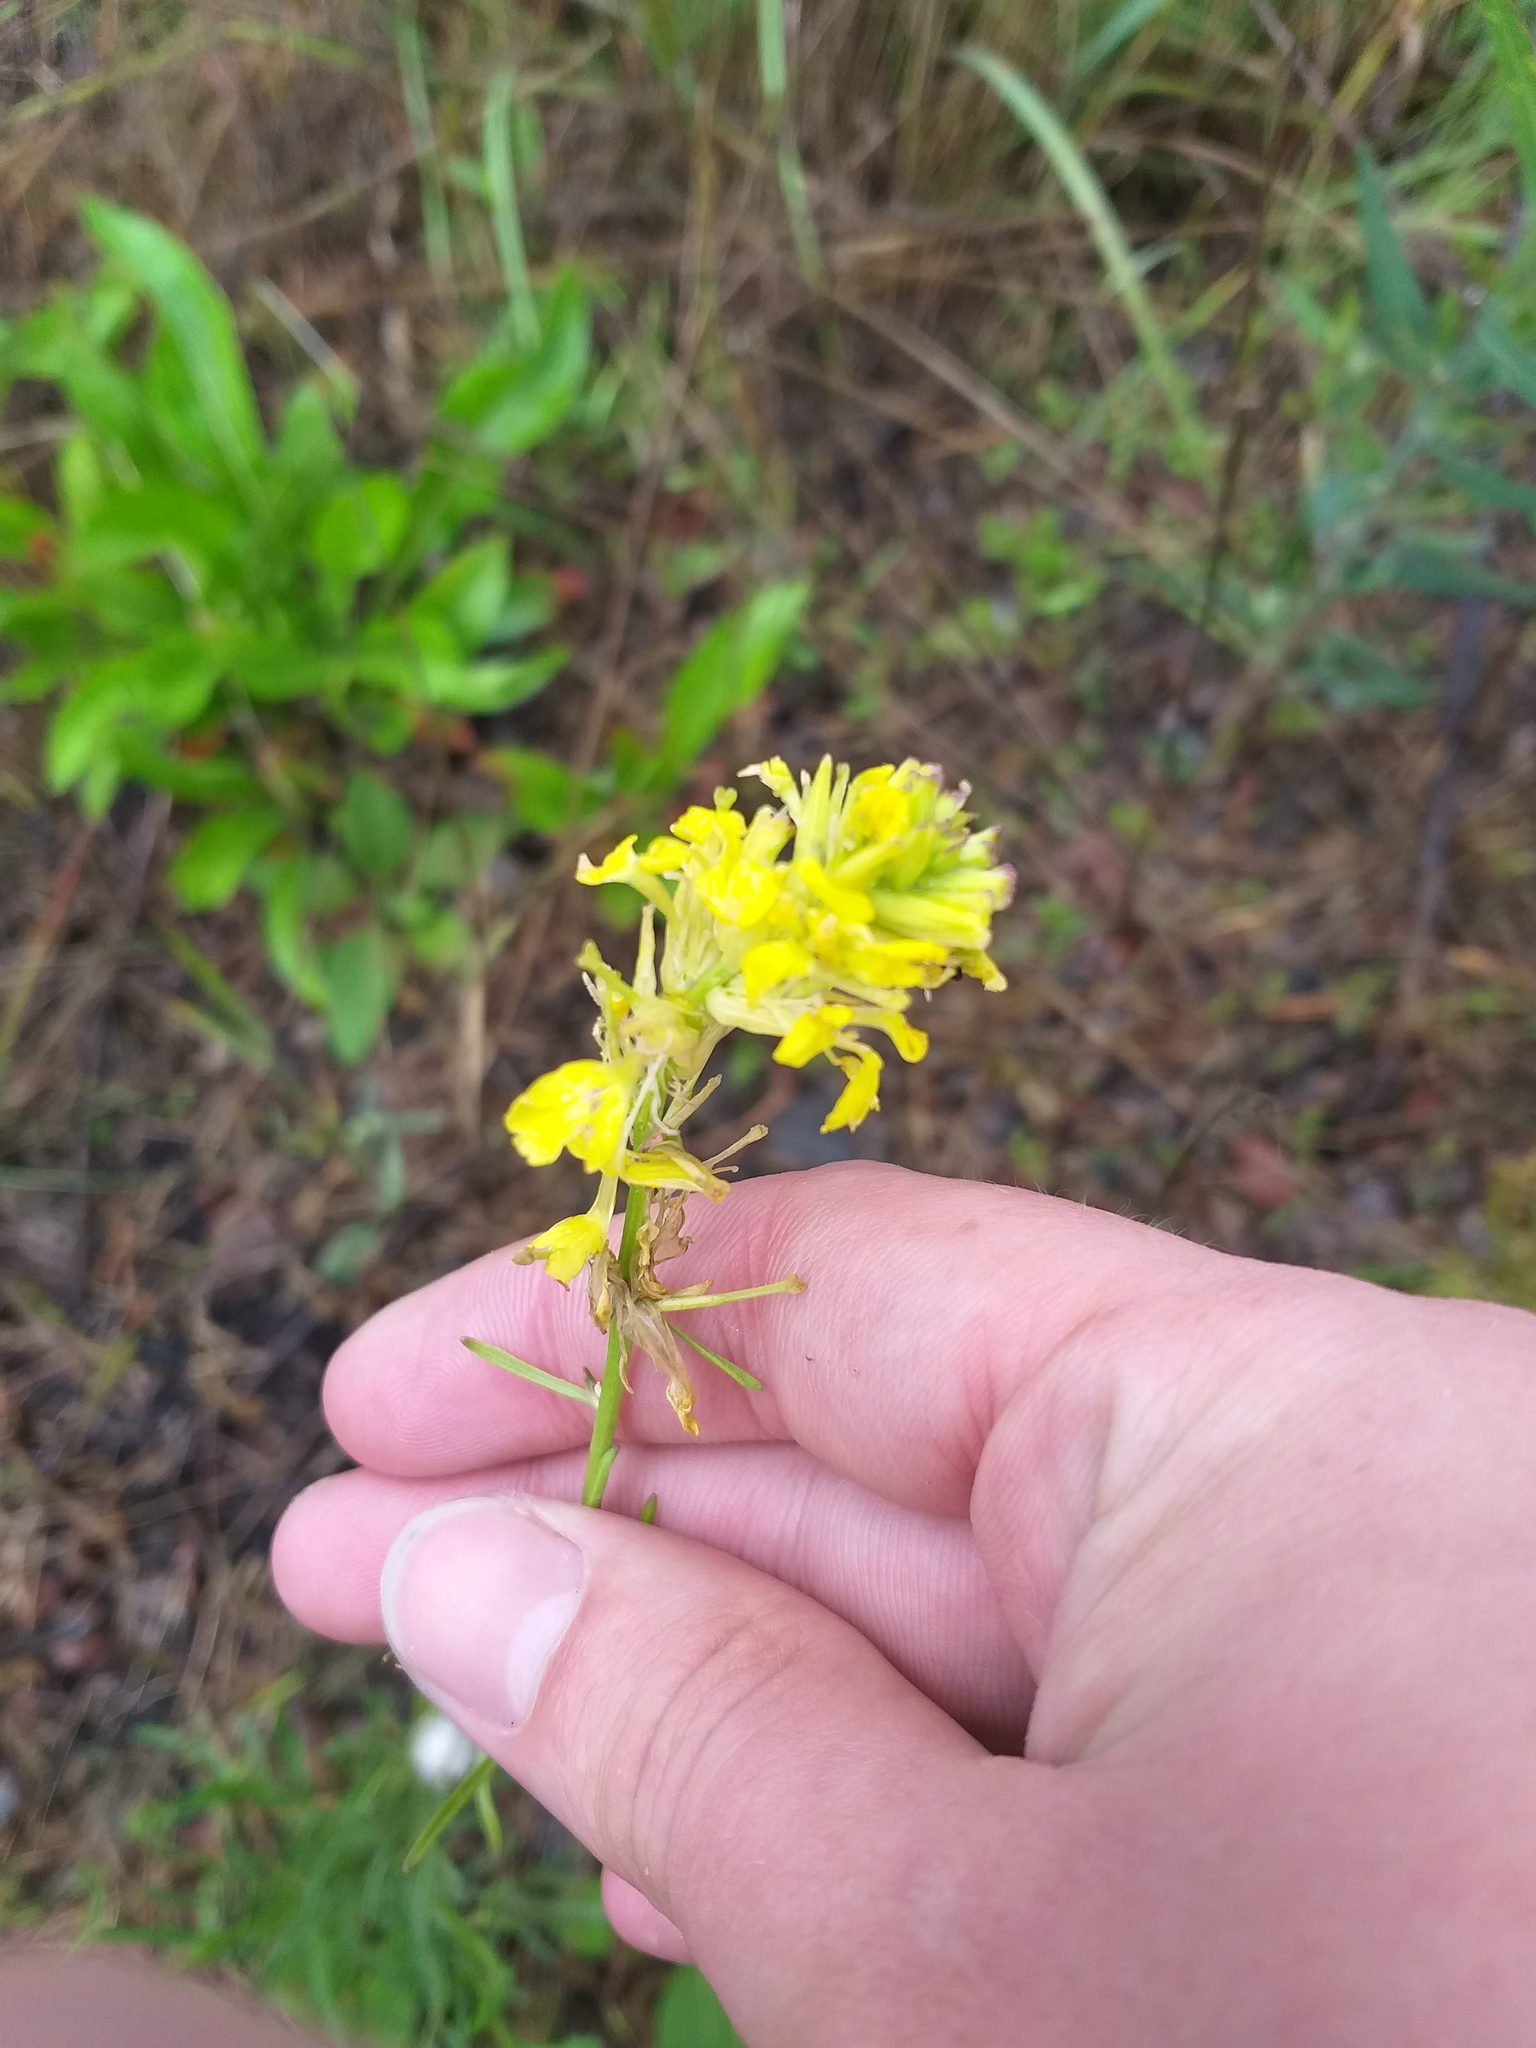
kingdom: Plantae
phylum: Tracheophyta
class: Magnoliopsida
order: Brassicales
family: Brassicaceae
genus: Erysimum
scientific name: Erysimum quadrangulum
